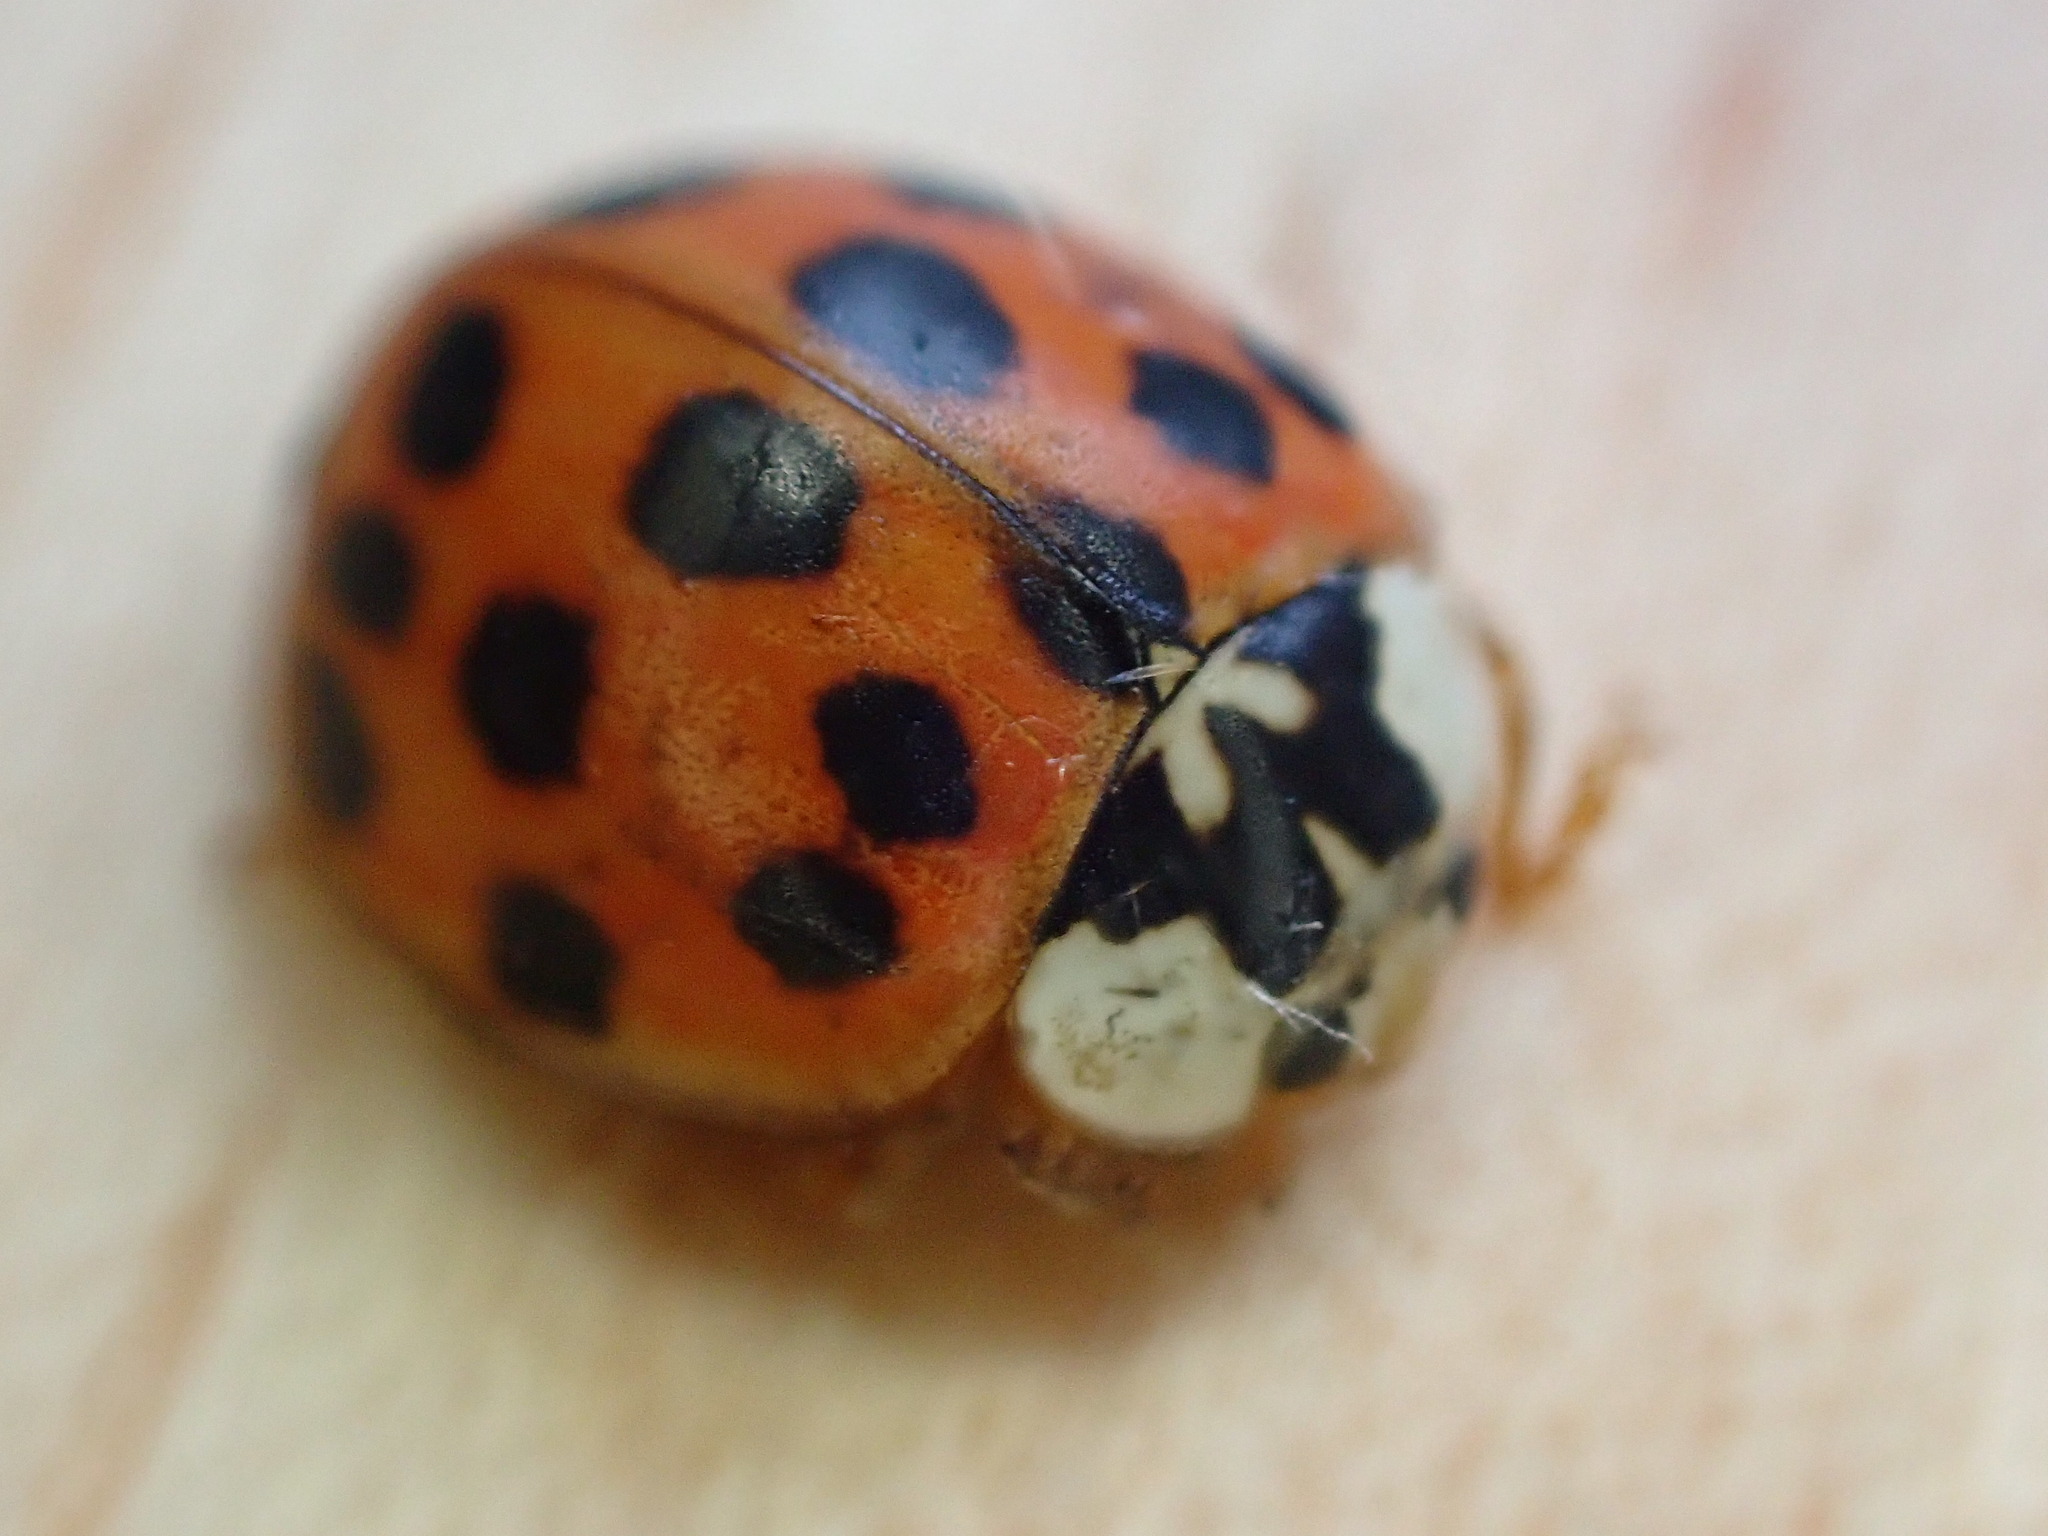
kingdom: Animalia
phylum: Arthropoda
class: Insecta
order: Coleoptera
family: Coccinellidae
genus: Harmonia
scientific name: Harmonia axyridis
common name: Harlequin ladybird
